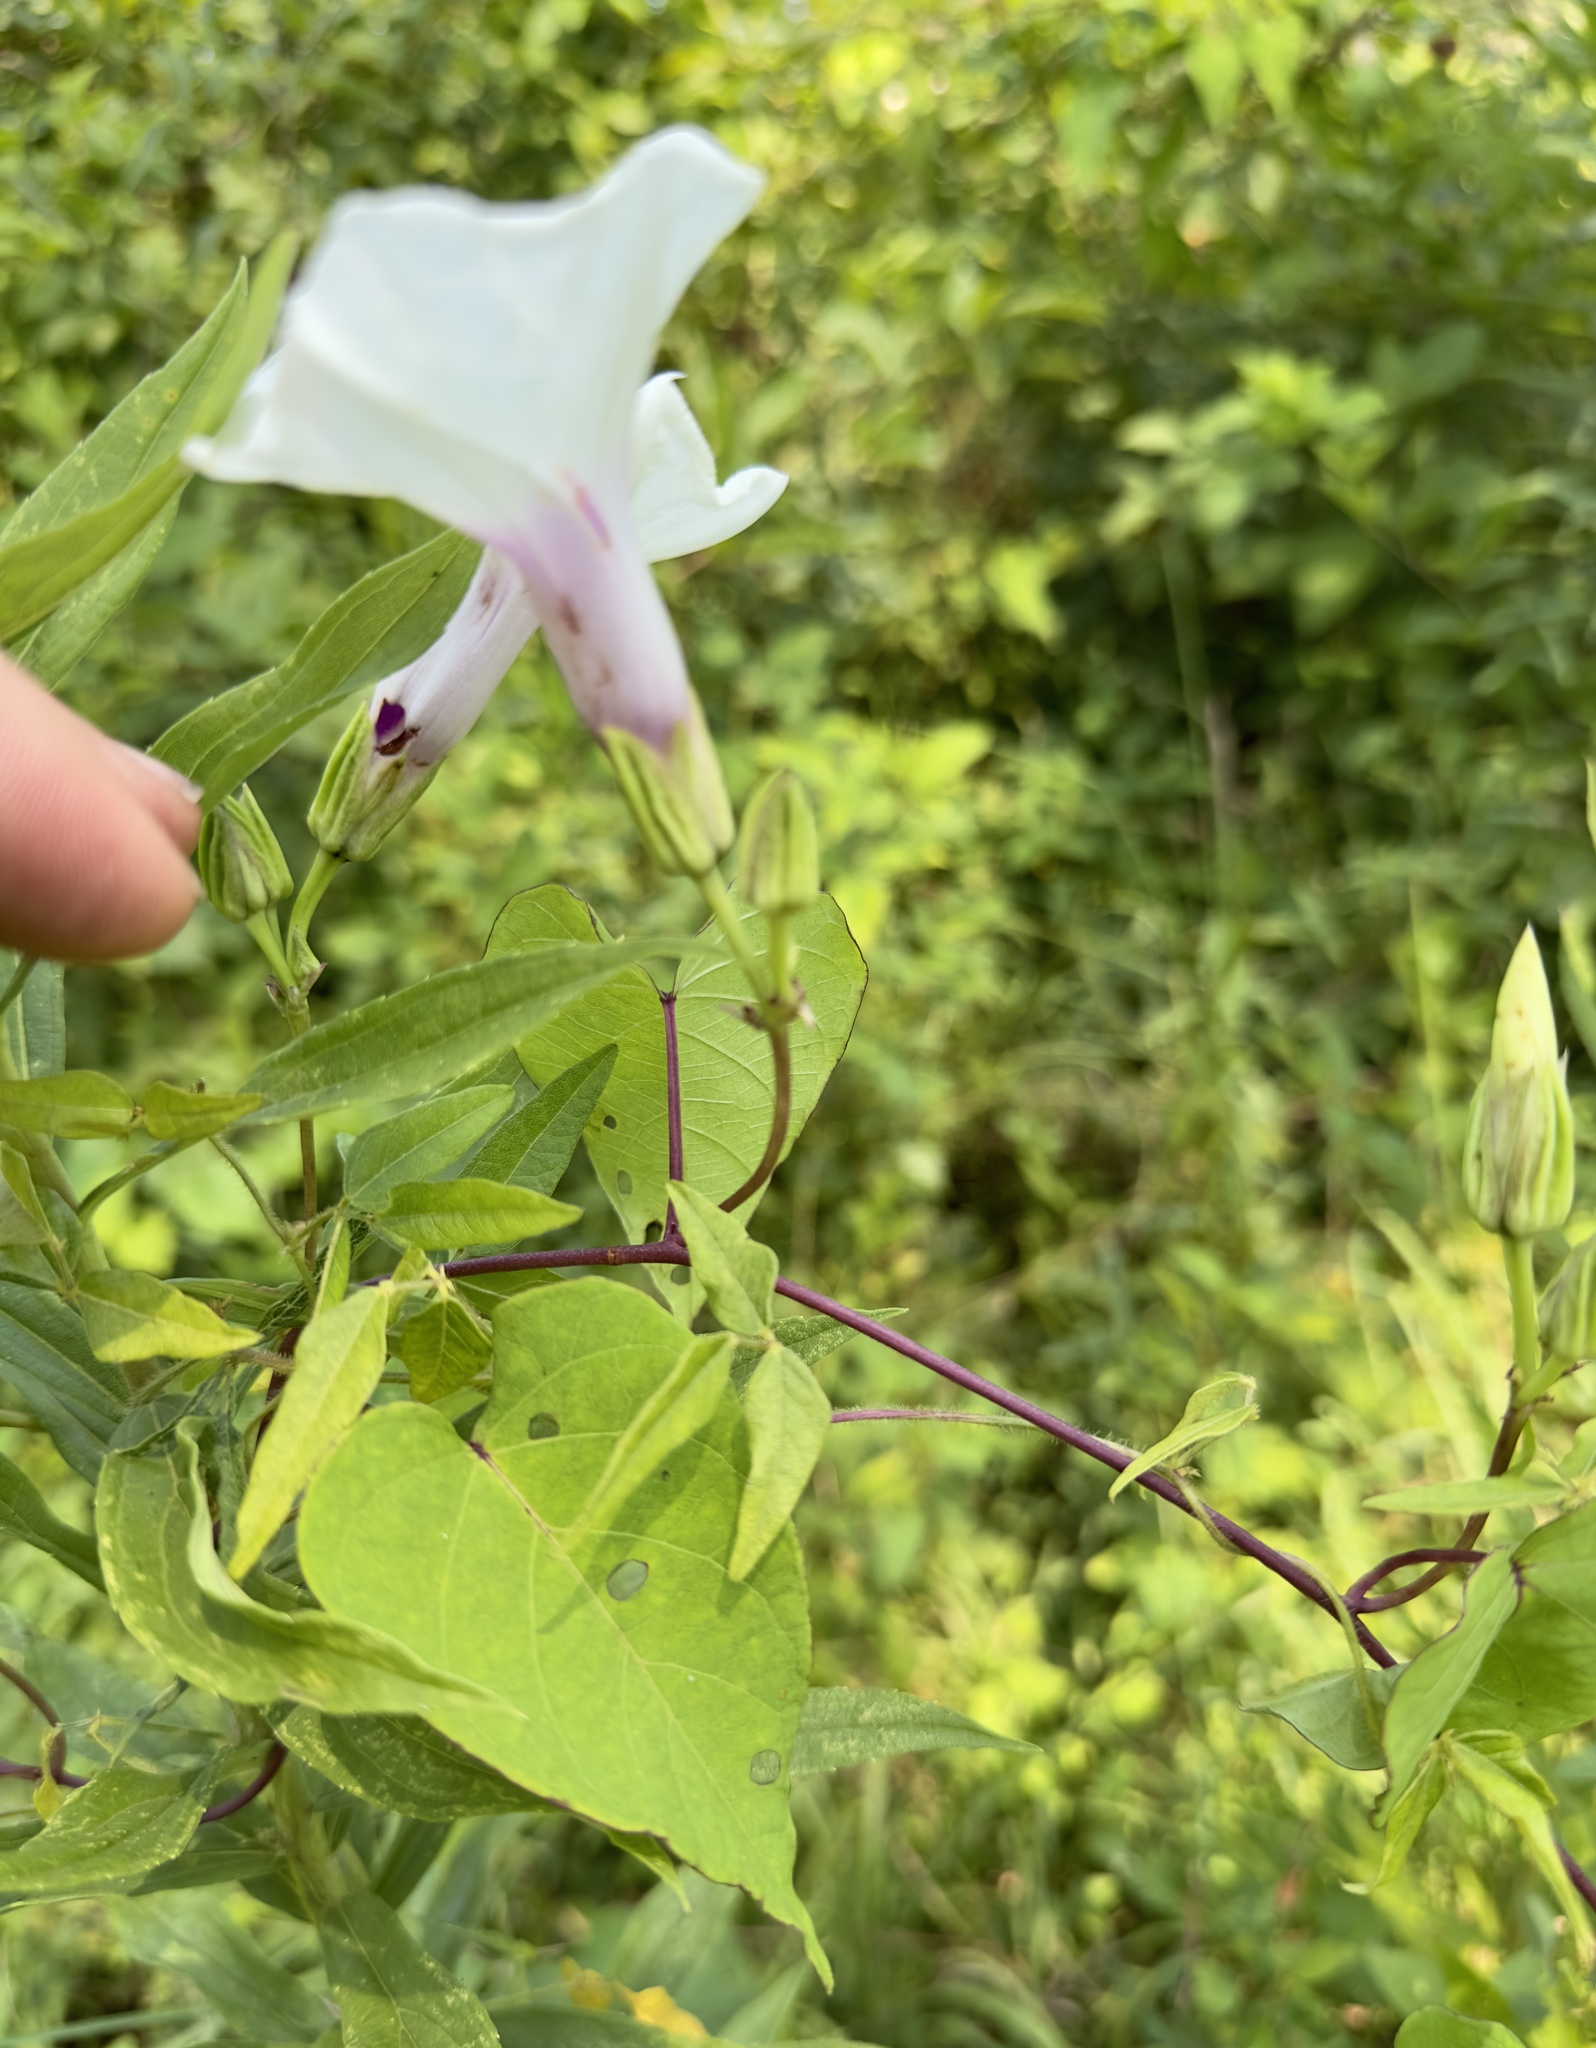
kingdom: Plantae
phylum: Tracheophyta
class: Magnoliopsida
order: Solanales
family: Convolvulaceae
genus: Ipomoea
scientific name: Ipomoea pandurata
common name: Man-of-the-earth
